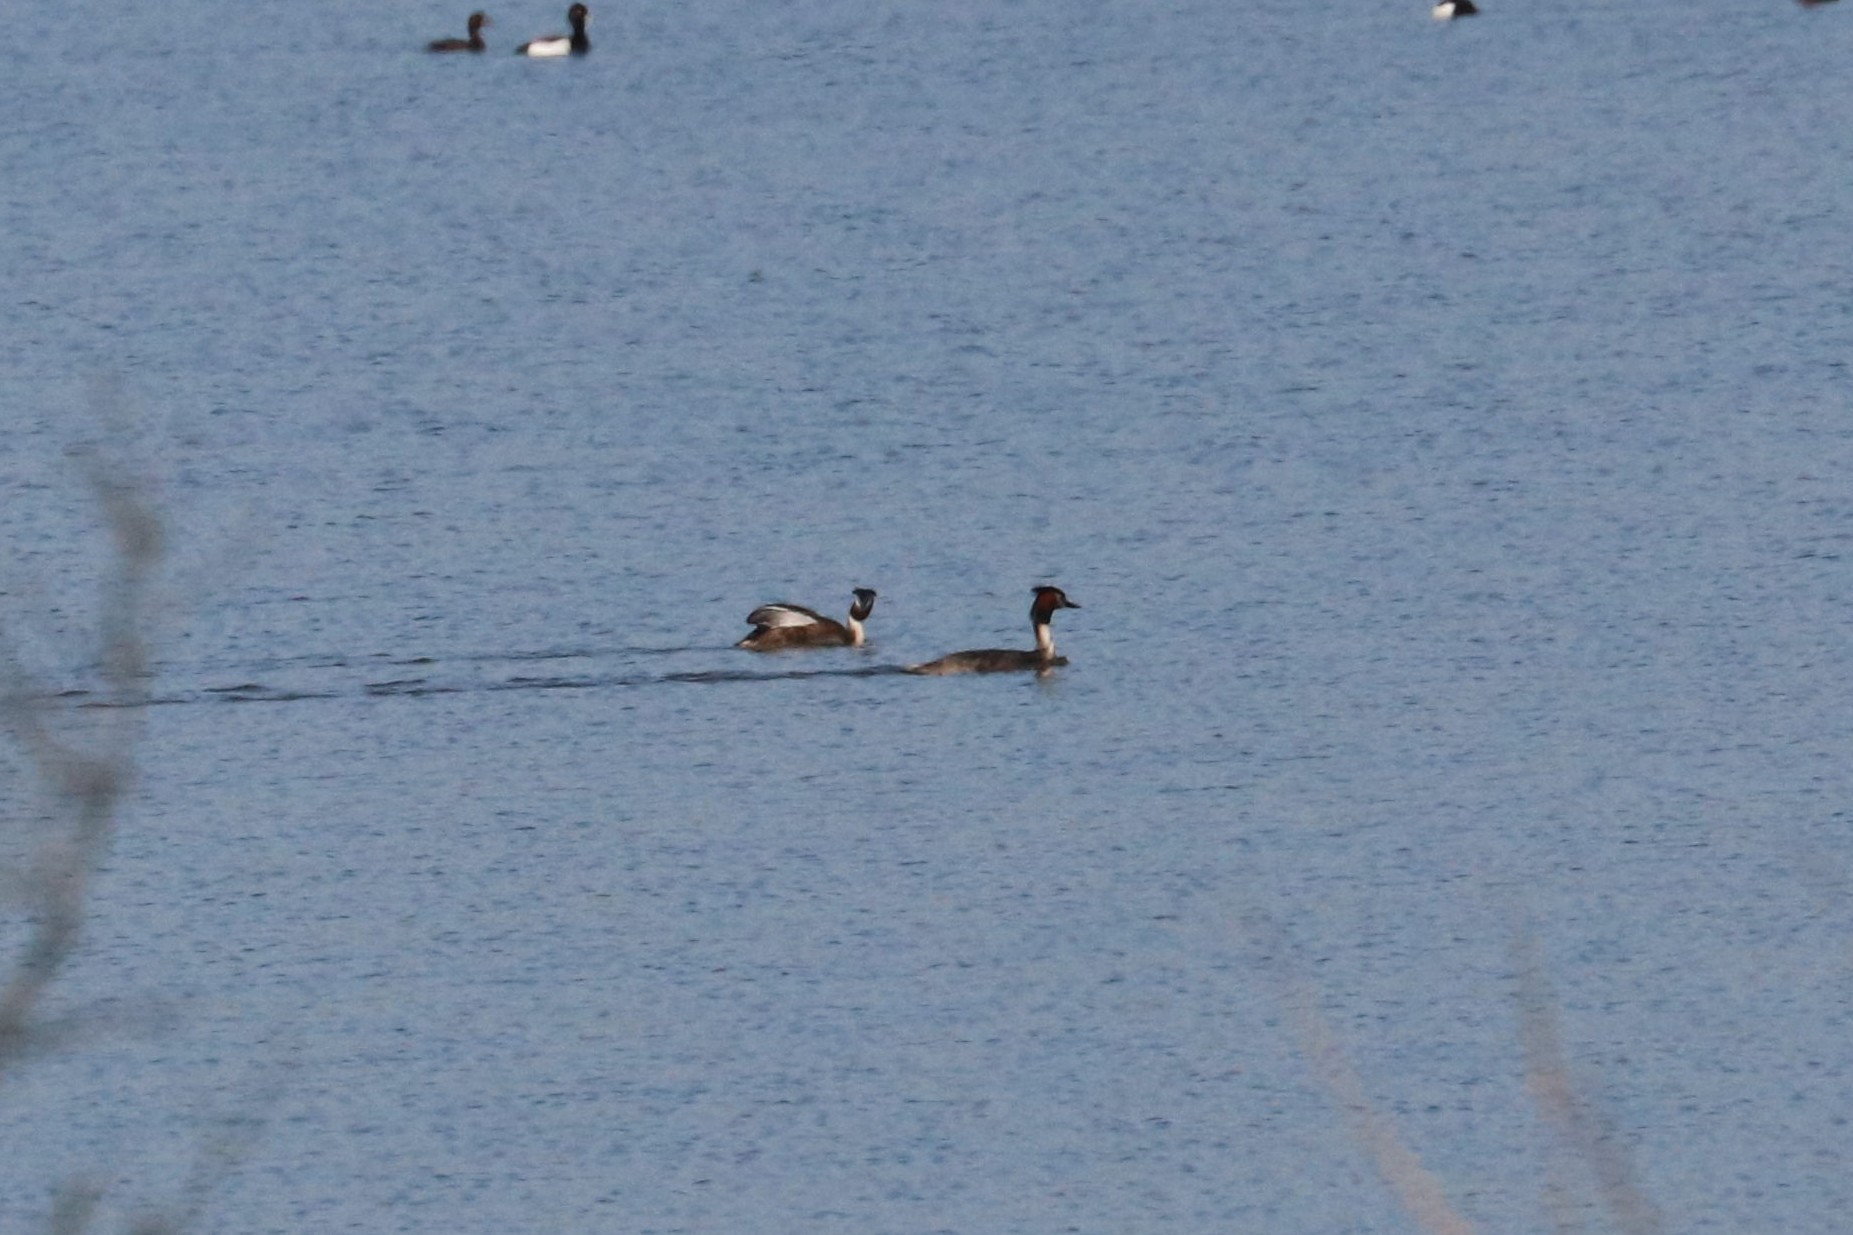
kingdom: Animalia
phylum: Chordata
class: Aves
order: Podicipediformes
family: Podicipedidae
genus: Podiceps
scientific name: Podiceps cristatus
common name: Great crested grebe
